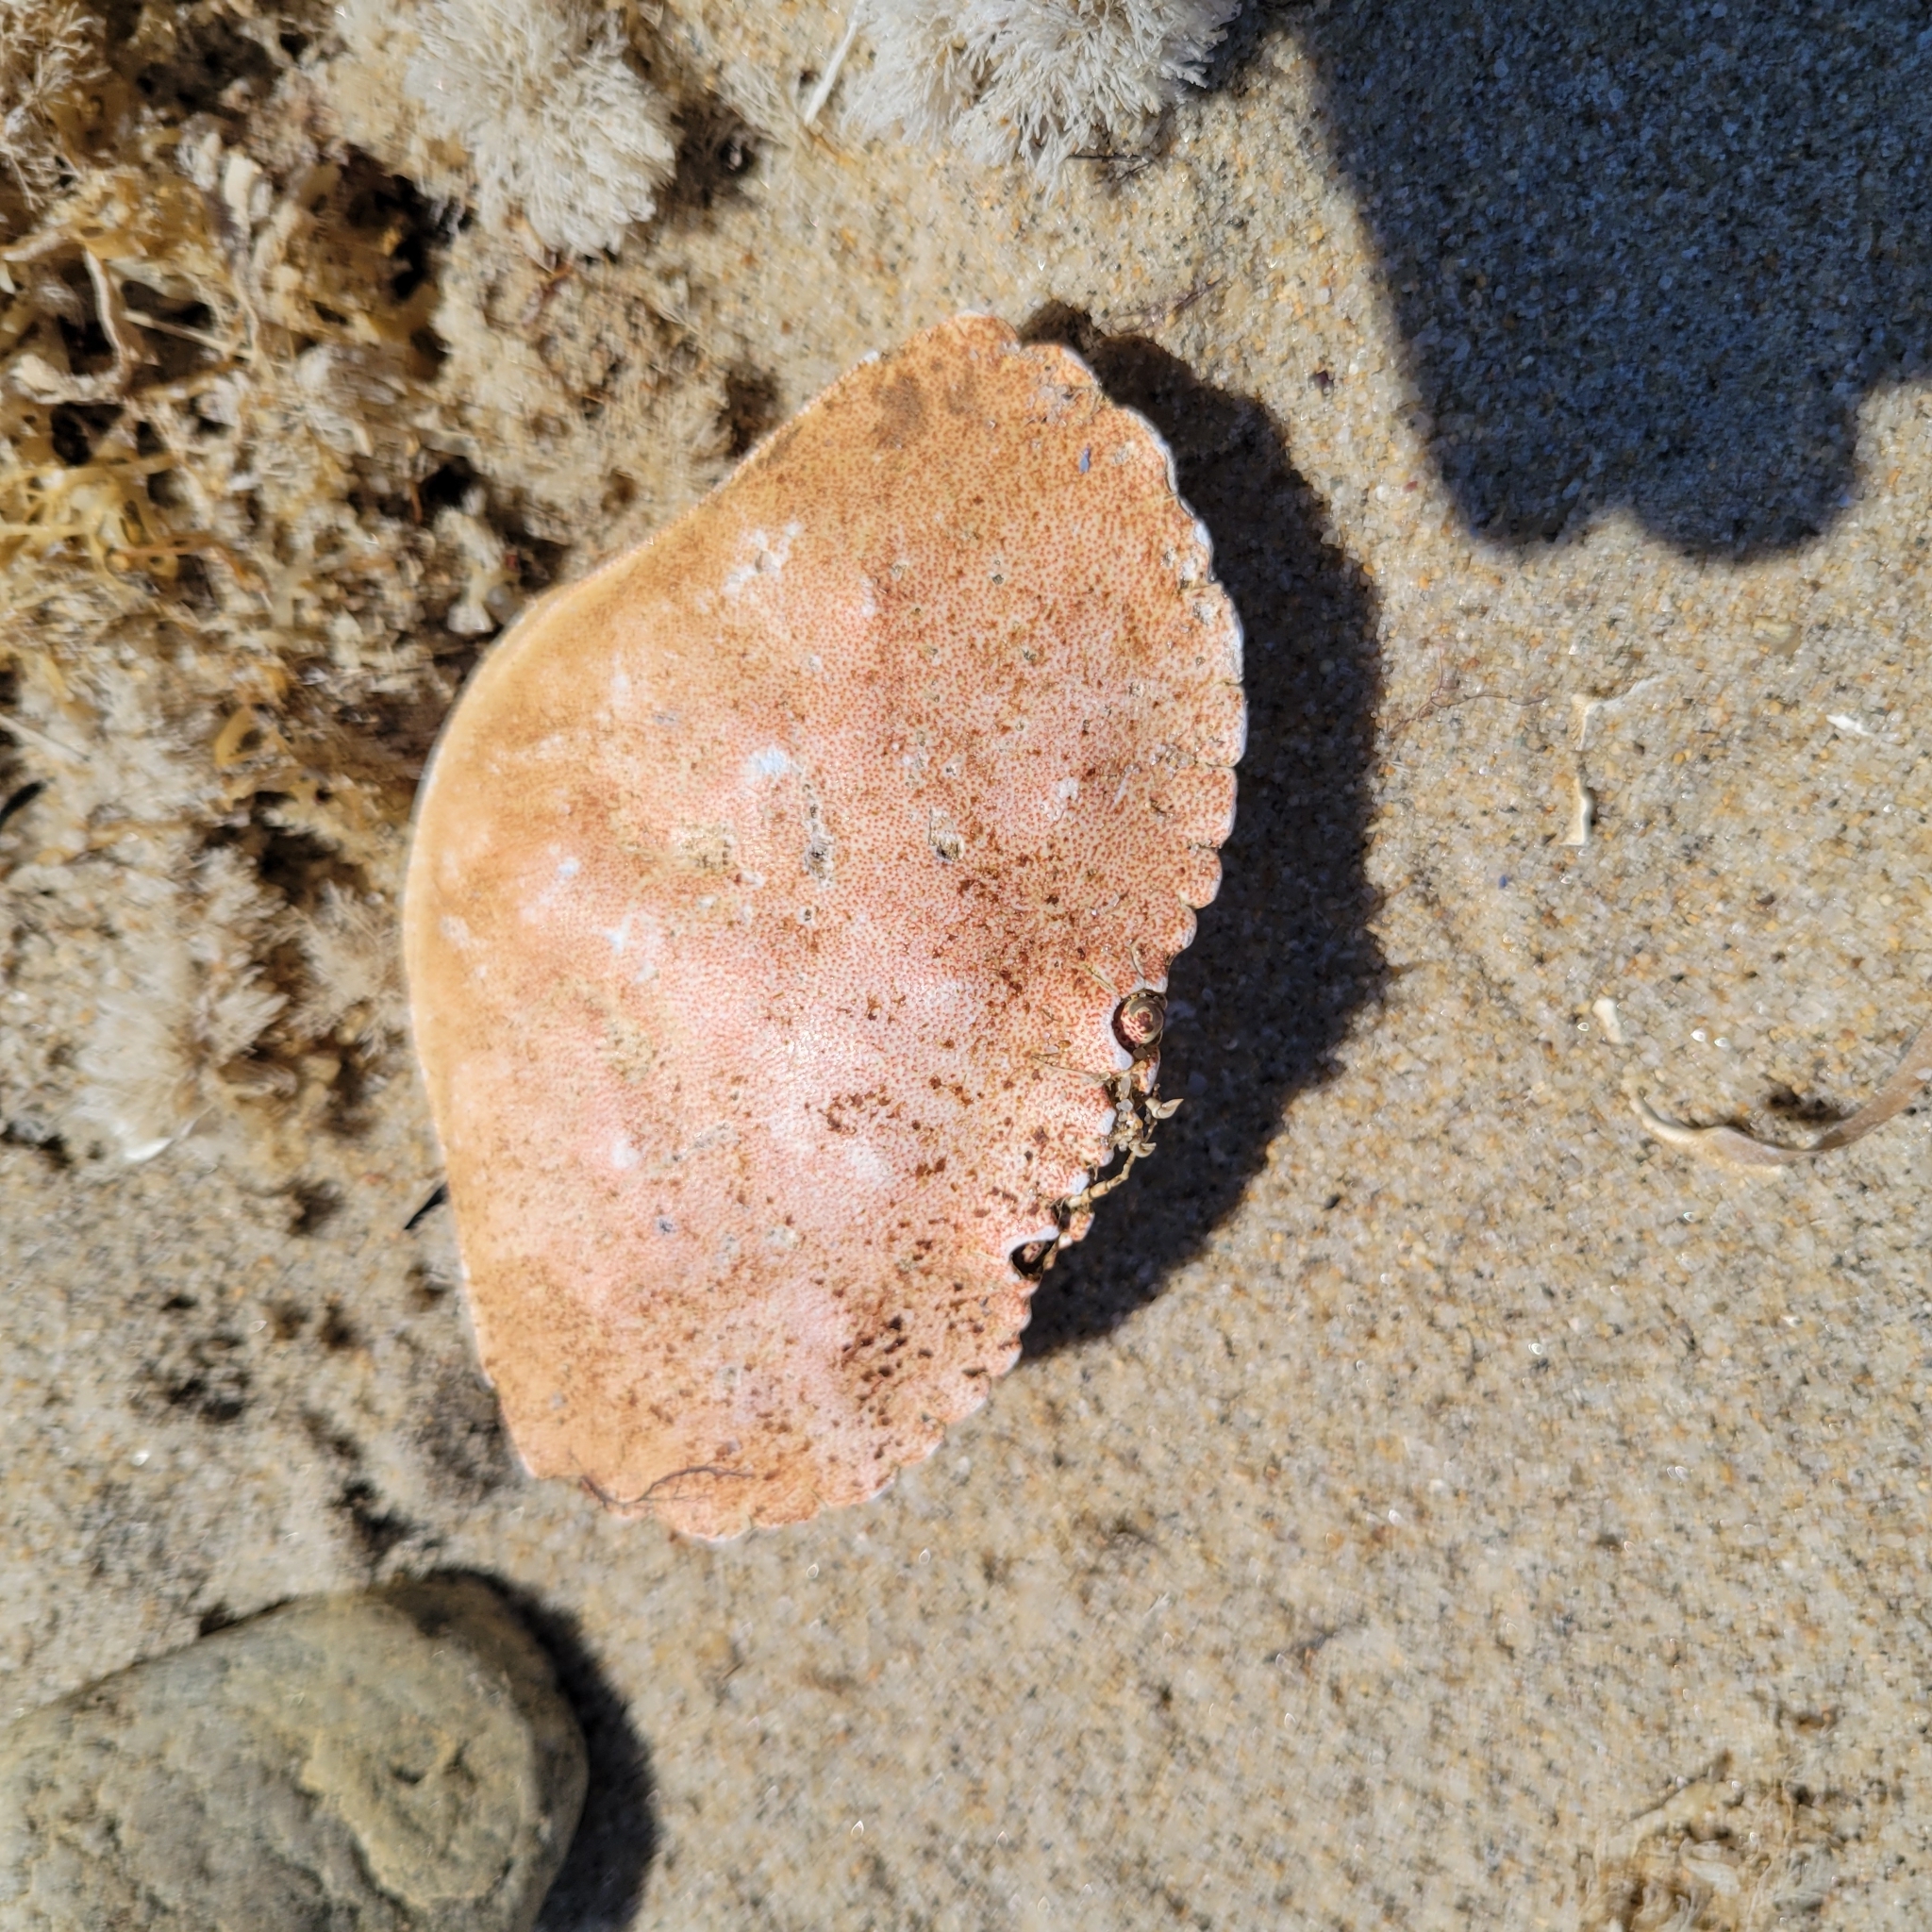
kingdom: Animalia
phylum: Arthropoda
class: Malacostraca
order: Decapoda
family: Cancridae
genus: Cancer
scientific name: Cancer irroratus
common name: Atlantic rock crab
